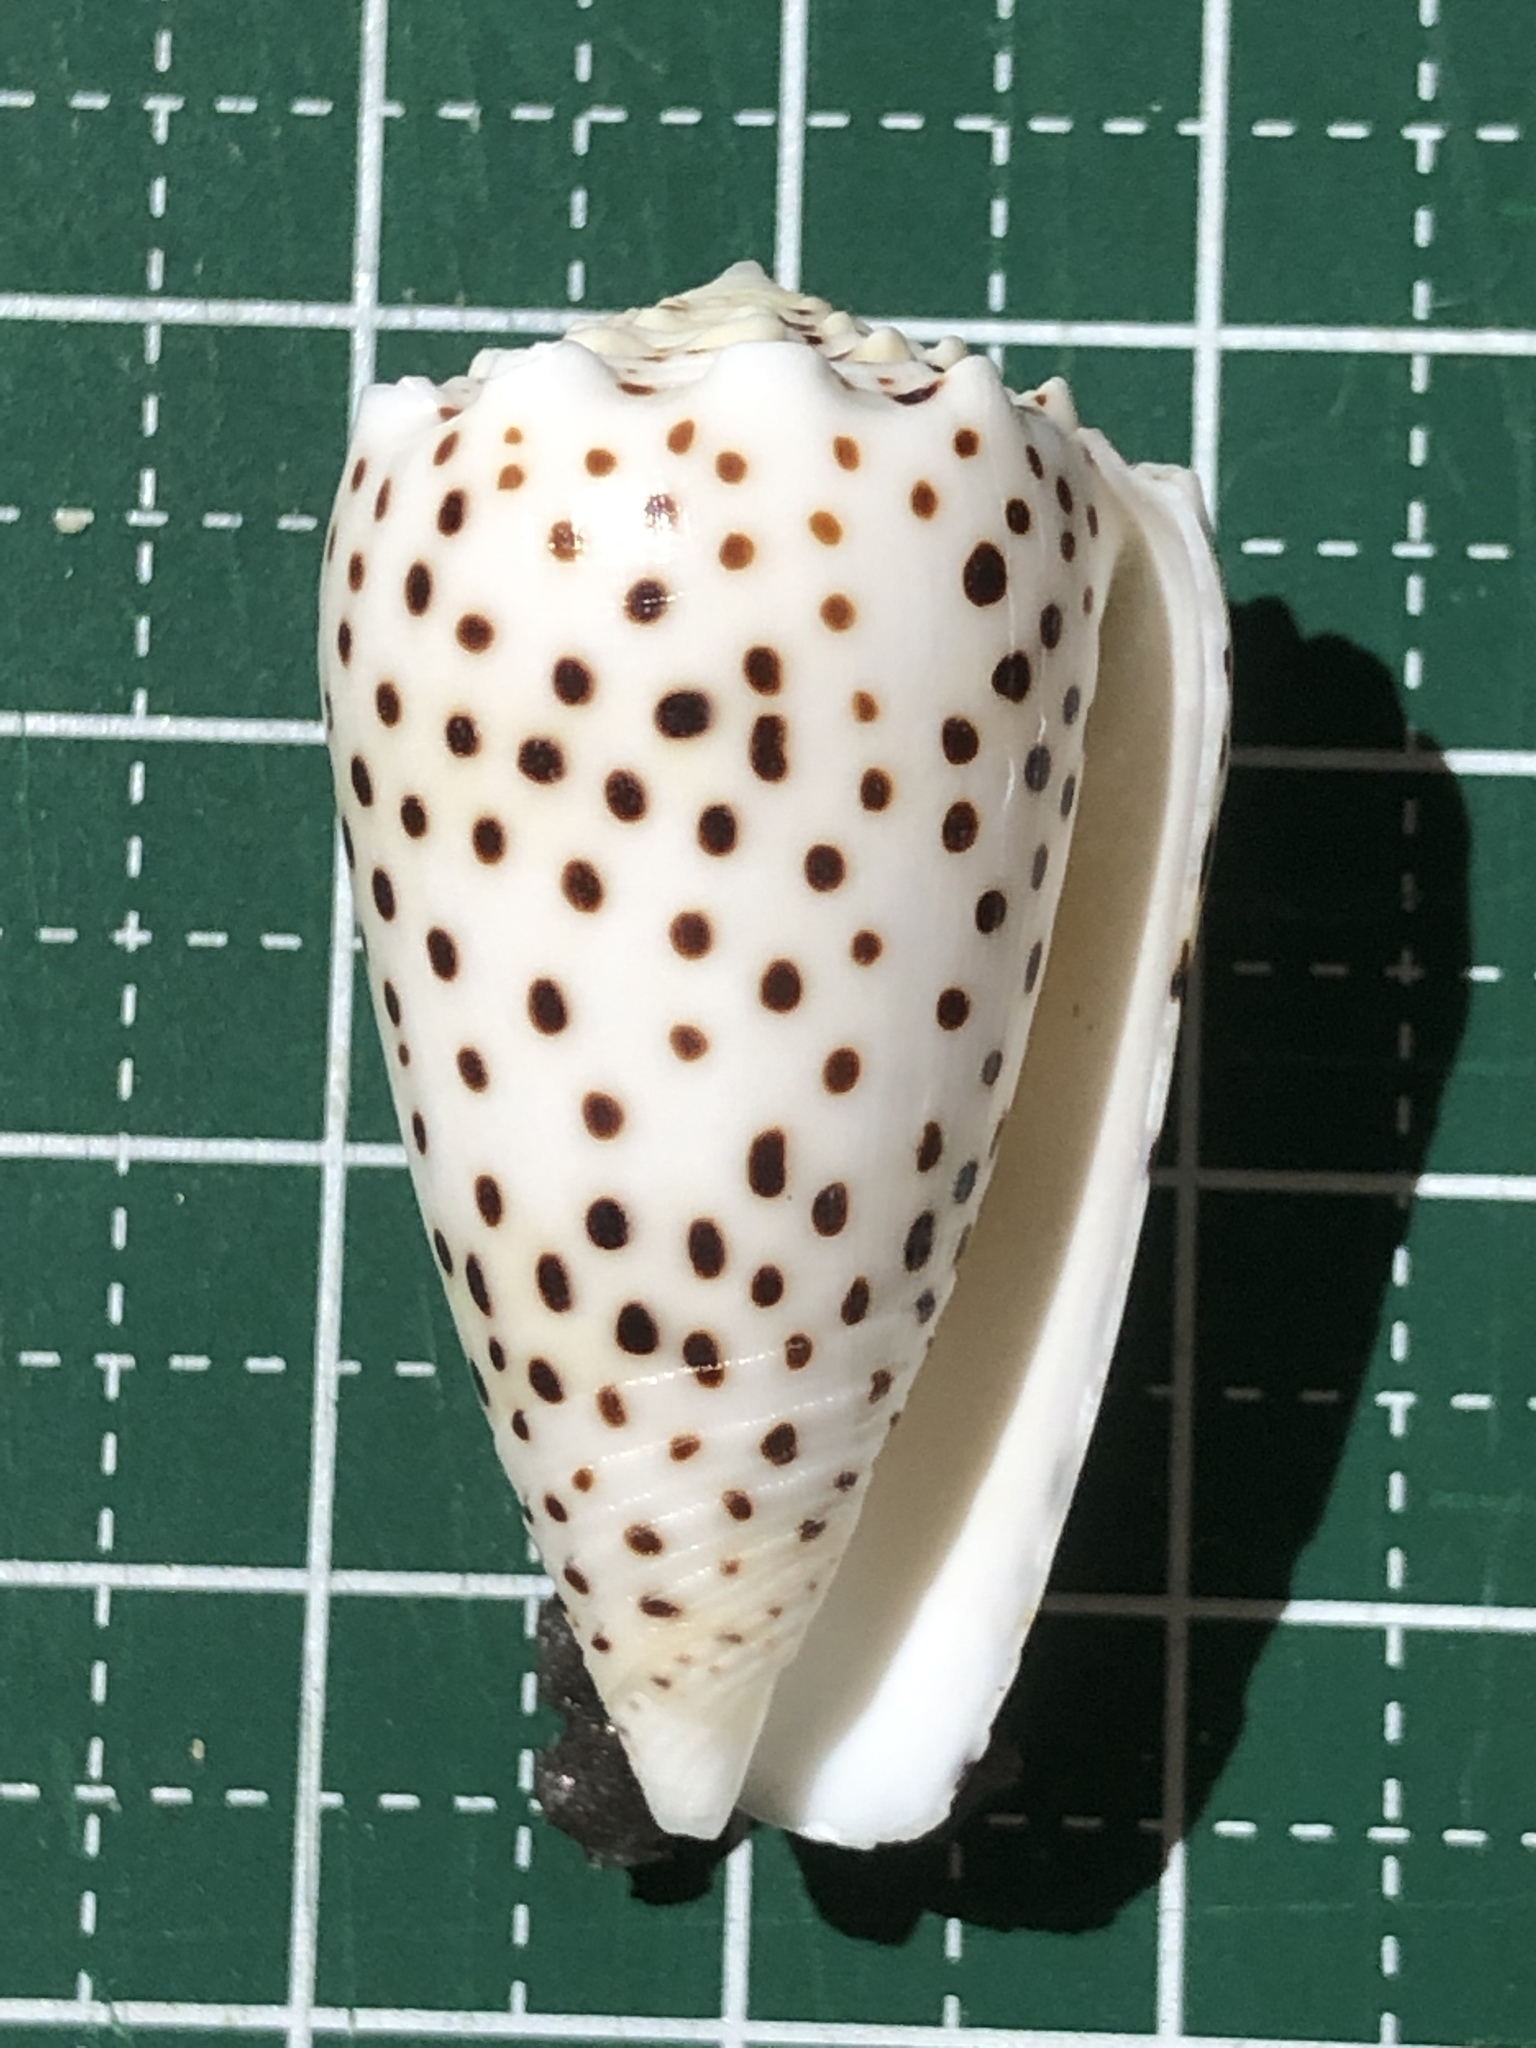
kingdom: Animalia
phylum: Mollusca
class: Gastropoda
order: Neogastropoda
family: Conidae
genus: Conus
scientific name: Conus pulicarius
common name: Flea-bite cone
